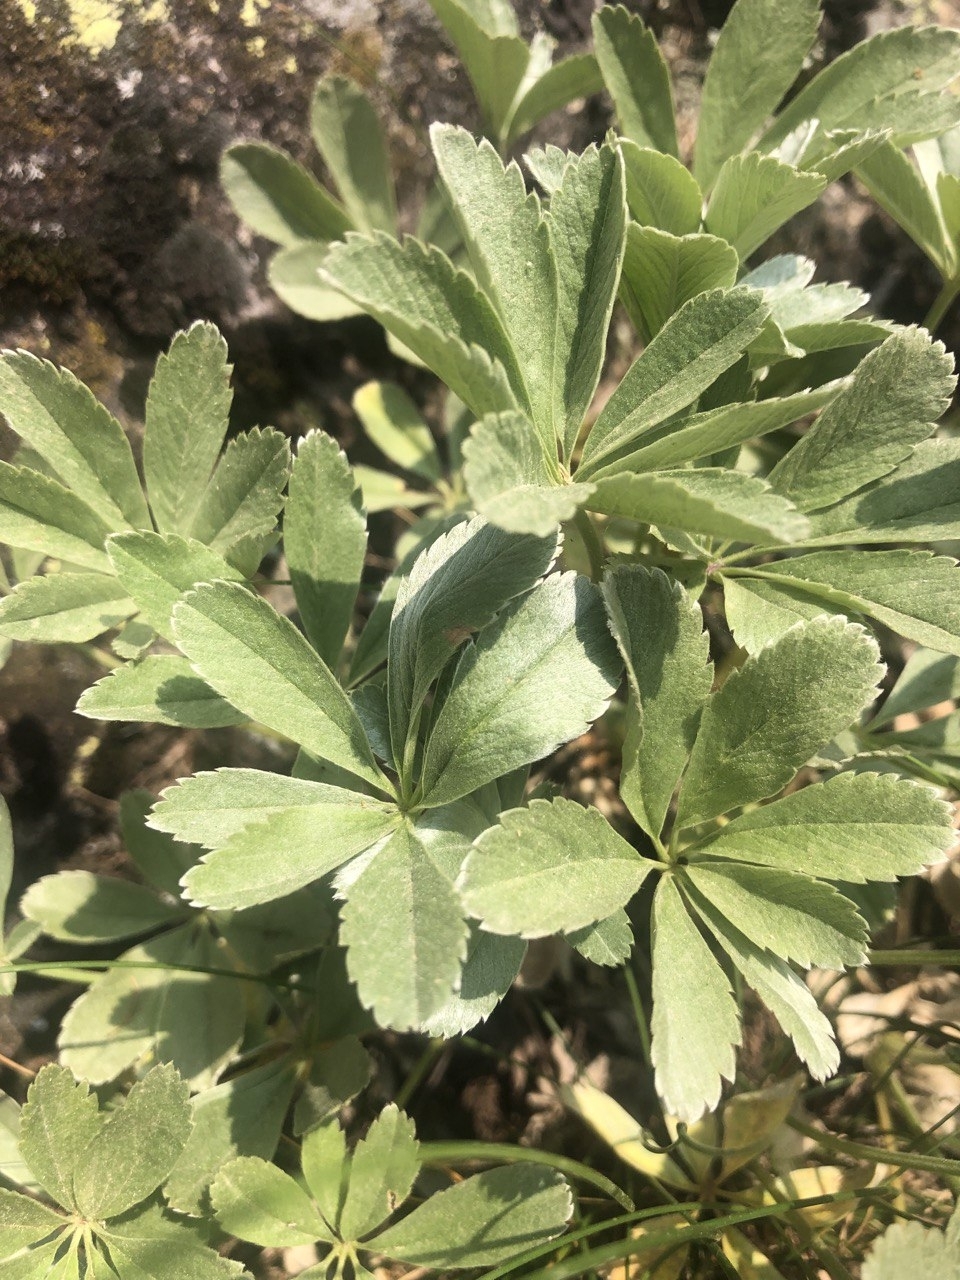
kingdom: Plantae
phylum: Tracheophyta
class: Magnoliopsida
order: Rosales
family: Rosaceae
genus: Potentilla
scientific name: Potentilla valderia
